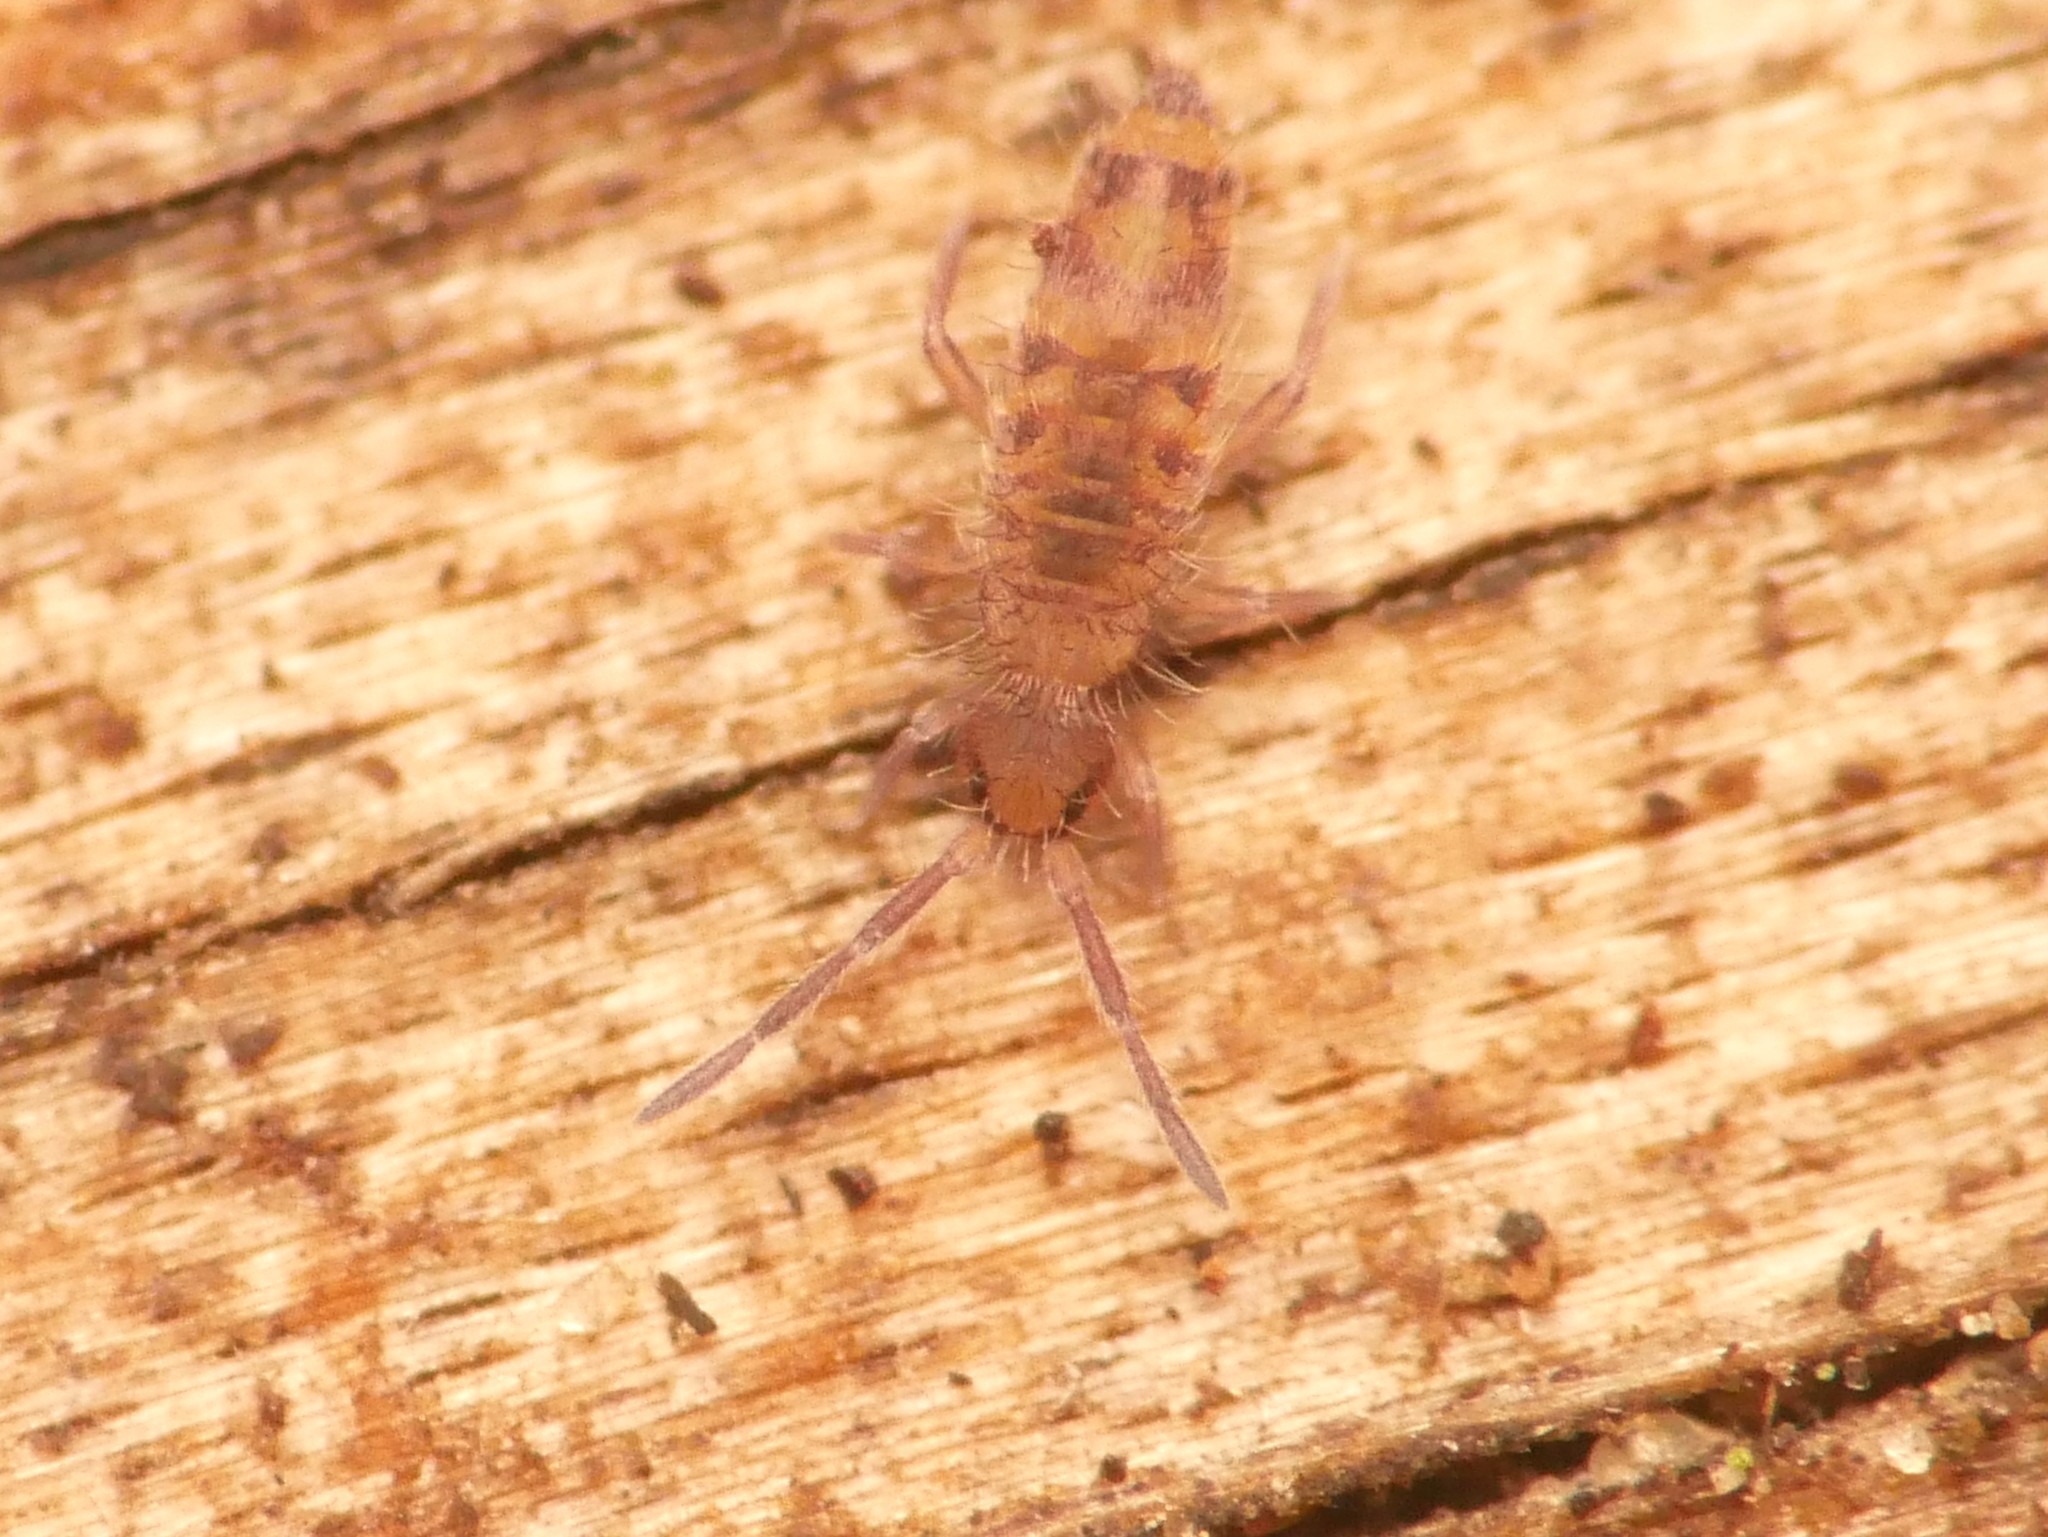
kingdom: Animalia
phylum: Arthropoda
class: Collembola
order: Entomobryomorpha
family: Entomobryidae
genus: Entomobrya
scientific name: Entomobrya multifasciata
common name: Springtail
